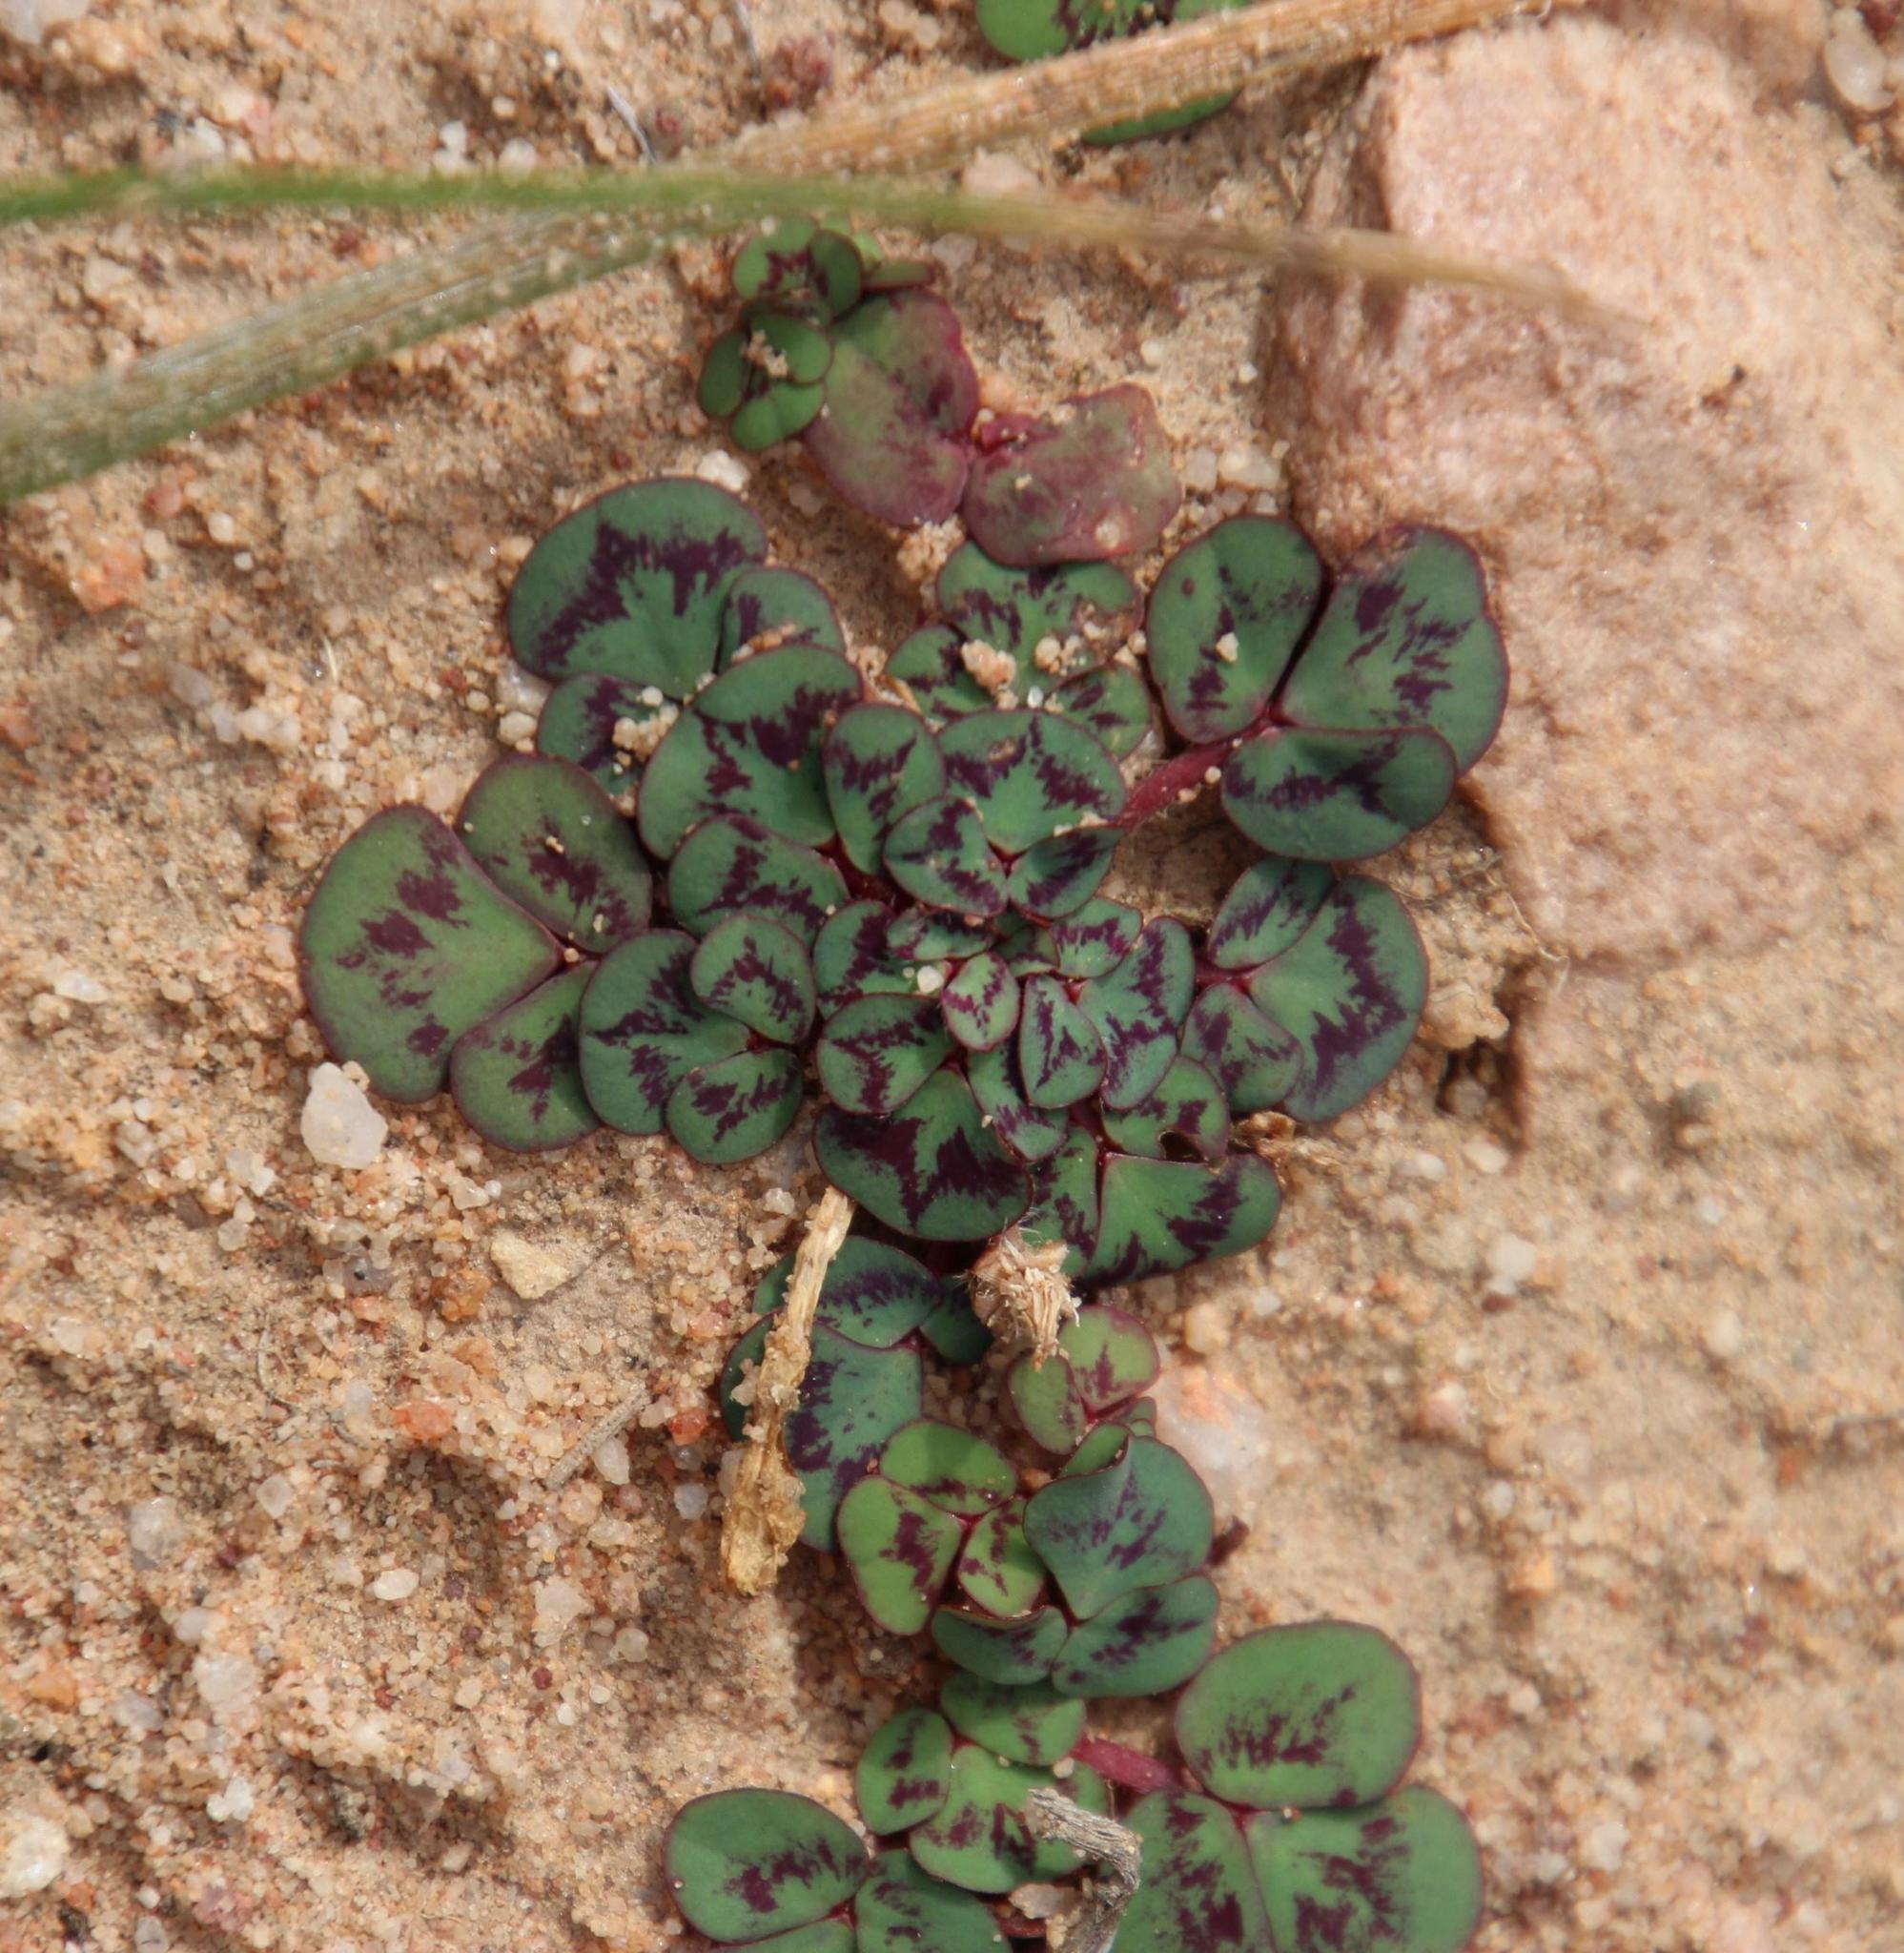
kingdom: Plantae
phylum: Tracheophyta
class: Magnoliopsida
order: Oxalidales
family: Oxalidaceae
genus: Oxalis
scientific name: Oxalis purpurea
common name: Purple woodsorrel
